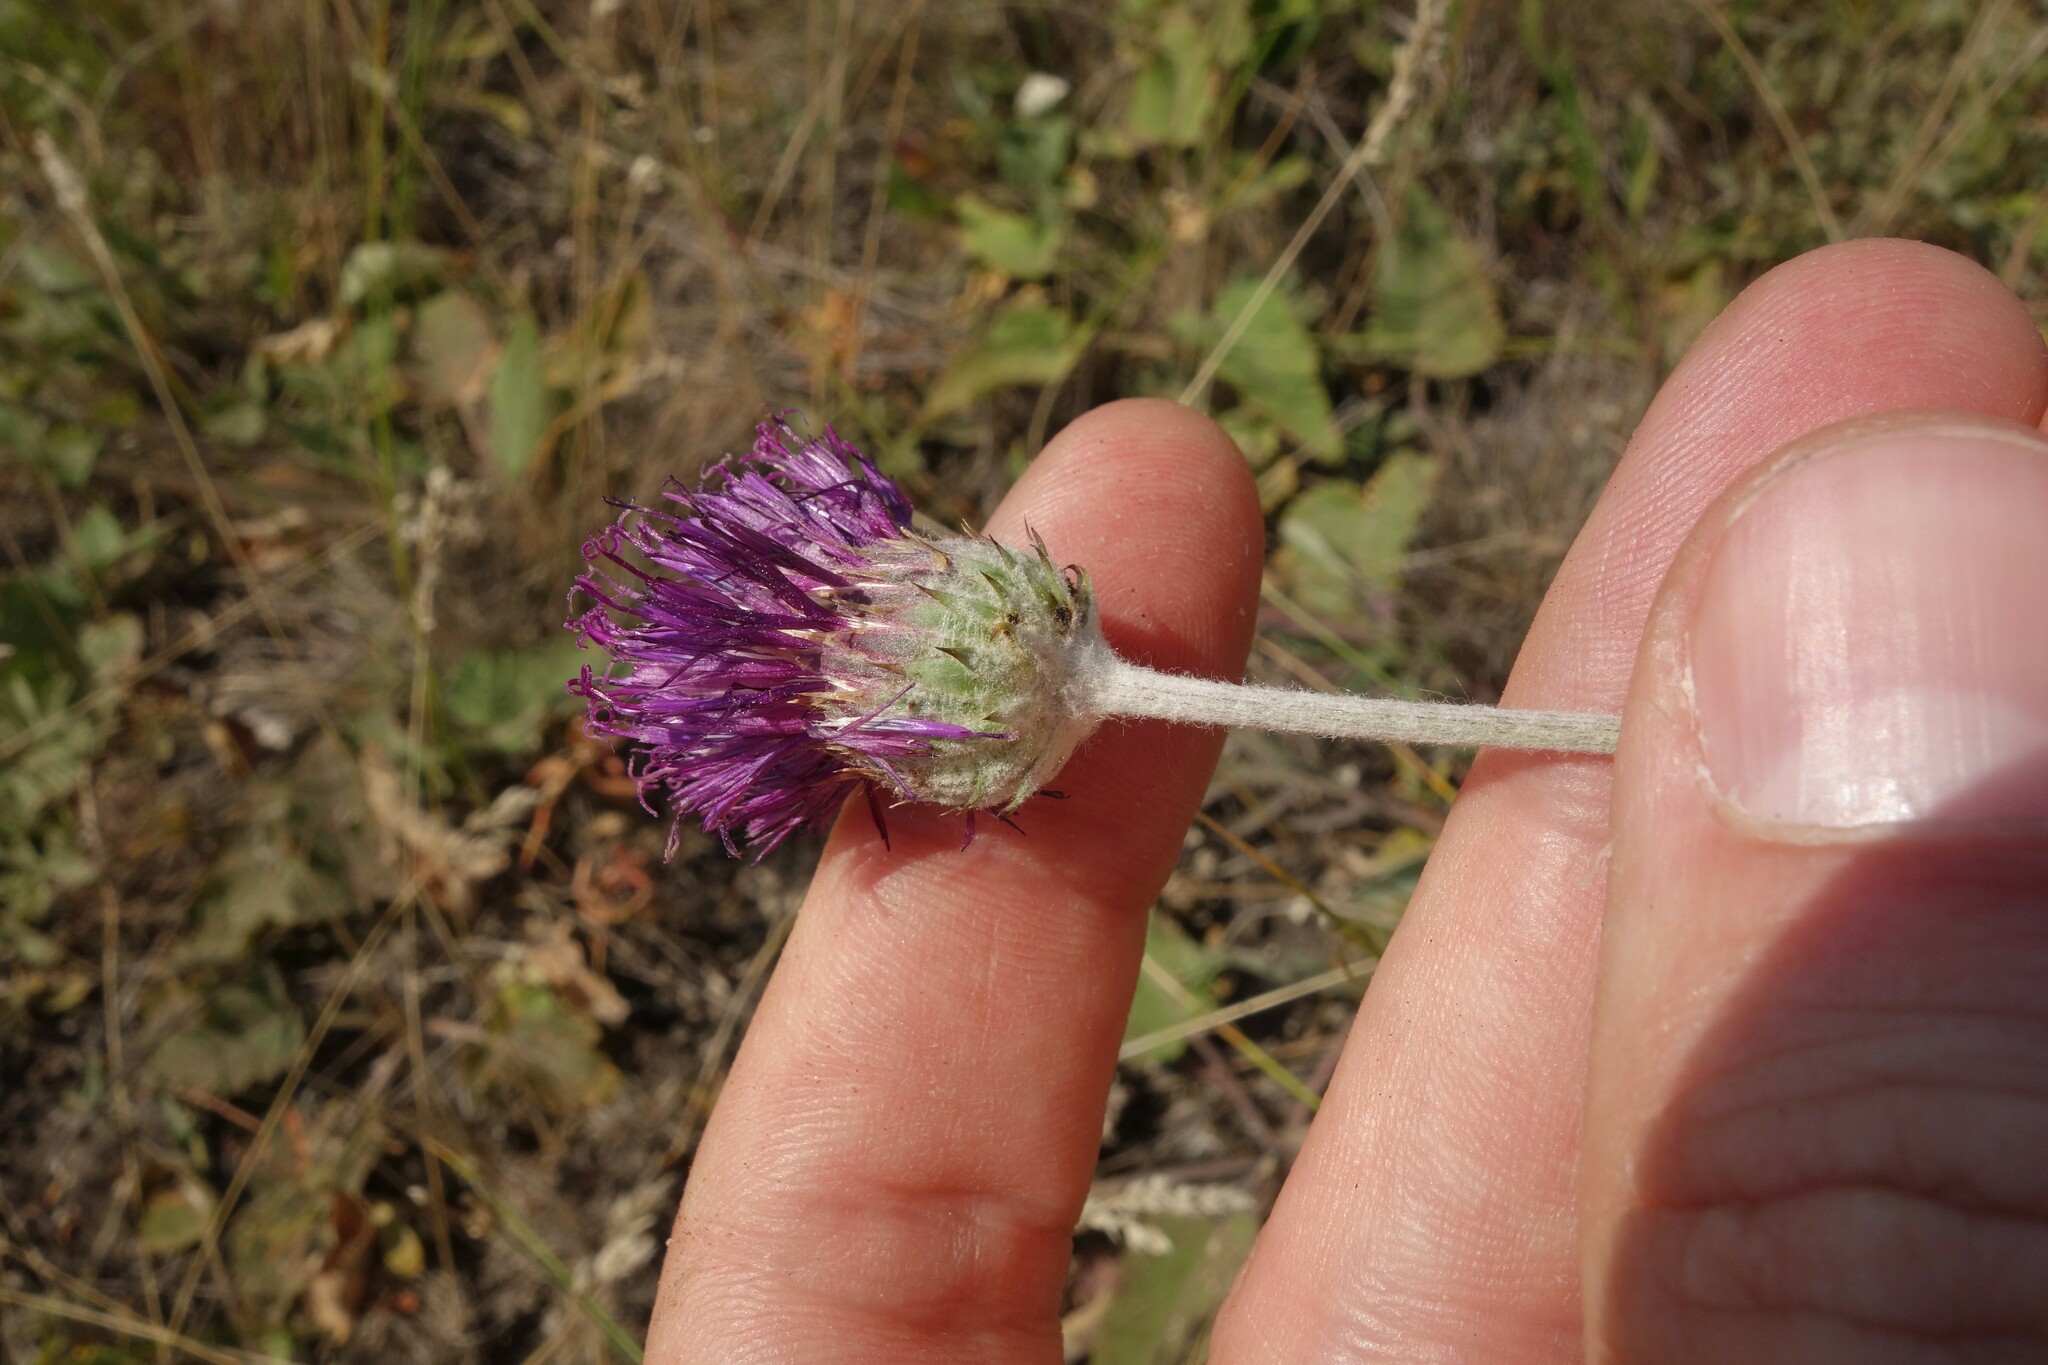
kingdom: Plantae
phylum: Tracheophyta
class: Magnoliopsida
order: Asterales
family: Asteraceae
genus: Jurinea
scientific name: Jurinea arachnoidea
